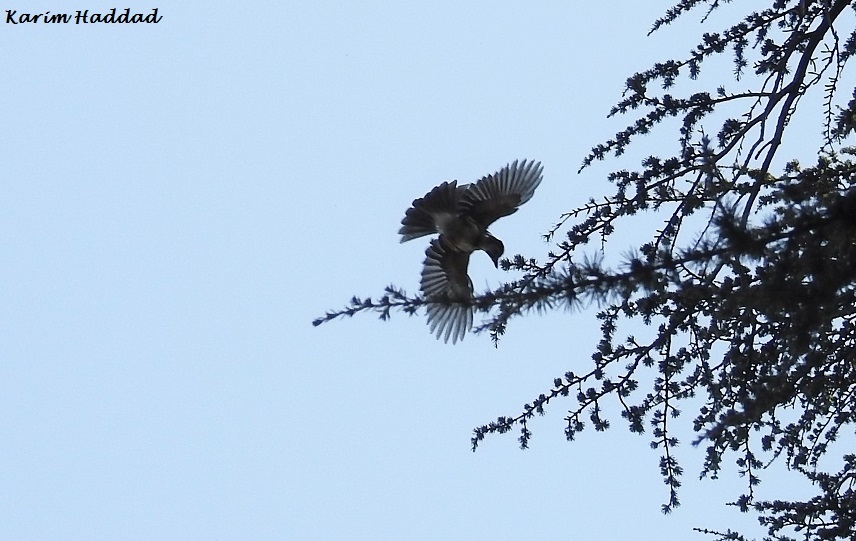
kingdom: Animalia
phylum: Chordata
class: Aves
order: Passeriformes
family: Corvidae
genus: Garrulus
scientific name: Garrulus glandarius
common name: Eurasian jay
